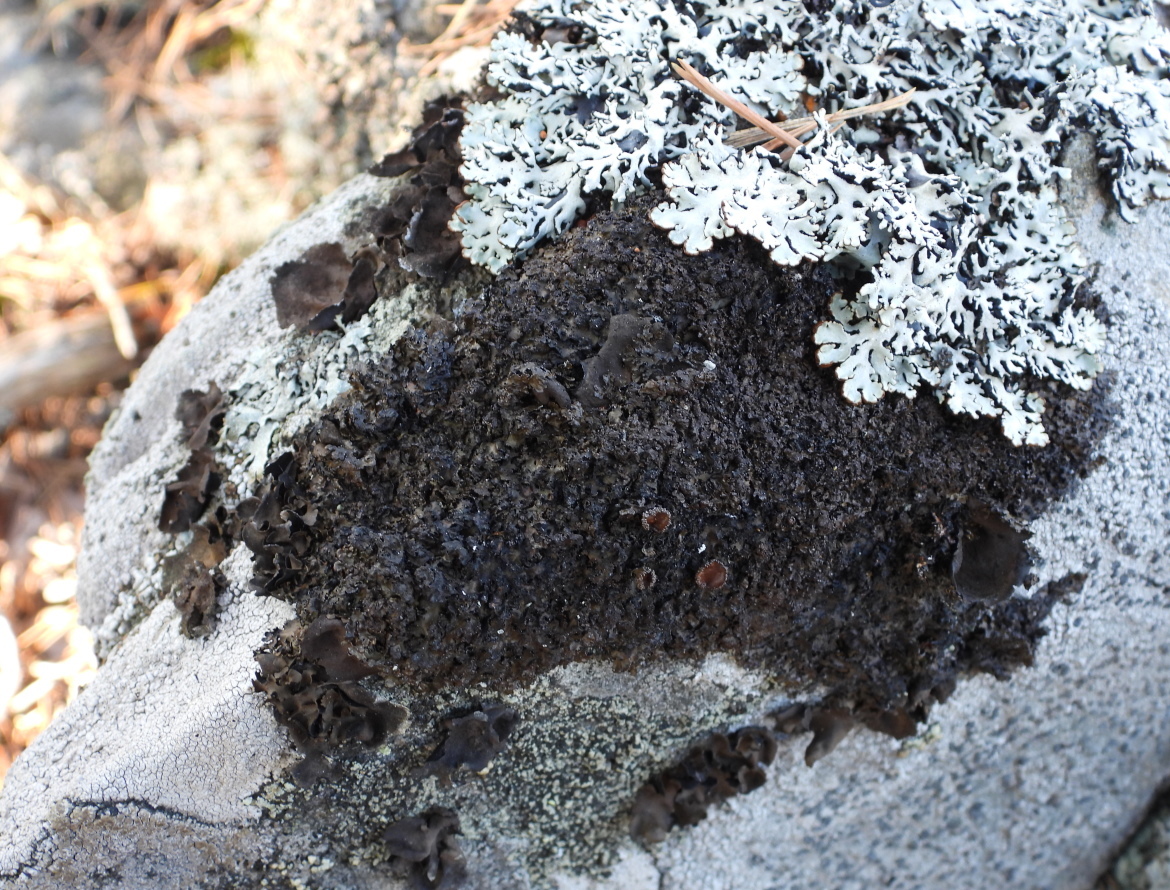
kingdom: Fungi
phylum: Ascomycota
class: Lecanoromycetes
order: Lecanorales
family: Parmeliaceae
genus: Melanelia
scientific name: Melanelia hepatizon
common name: Rimmed camouflage lichen
